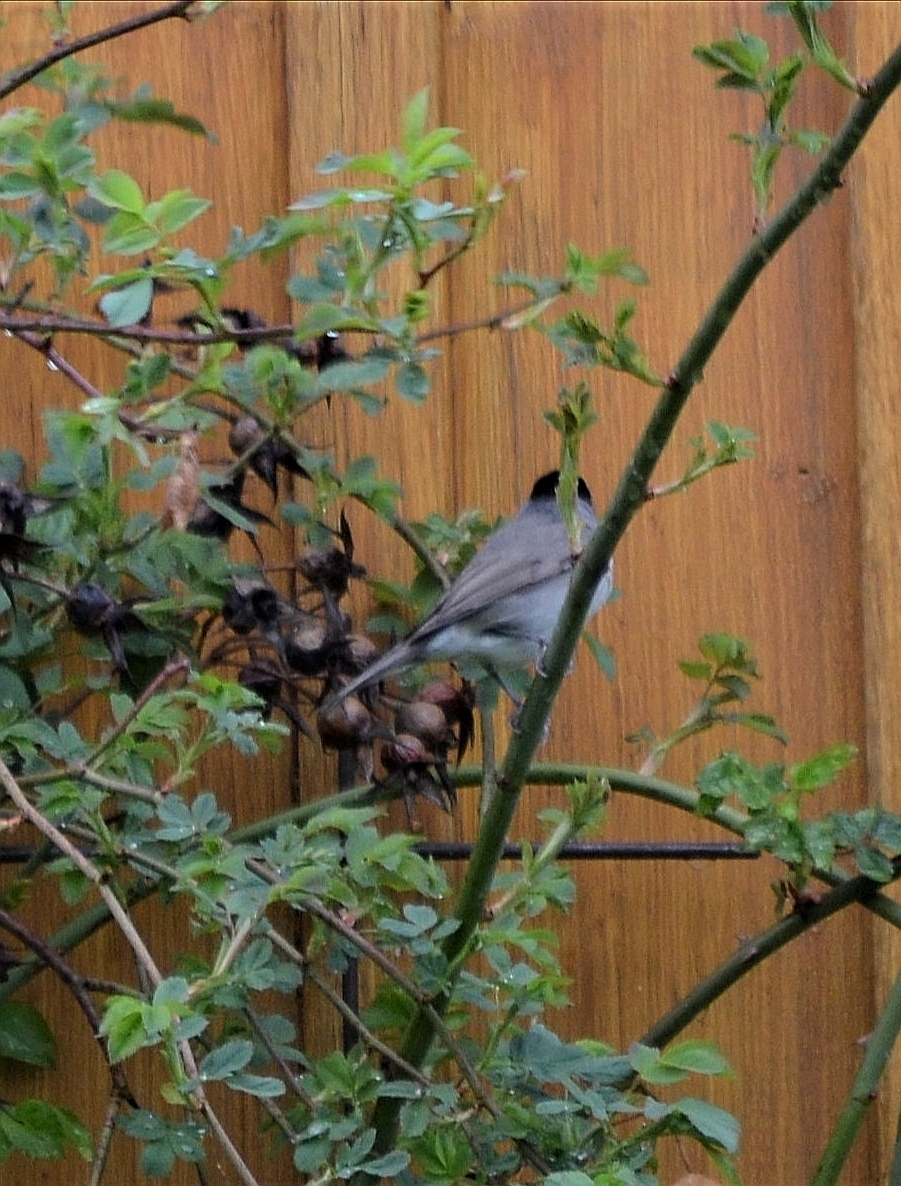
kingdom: Animalia
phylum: Chordata
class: Aves
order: Passeriformes
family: Sylviidae
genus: Sylvia
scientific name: Sylvia atricapilla
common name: Eurasian blackcap
